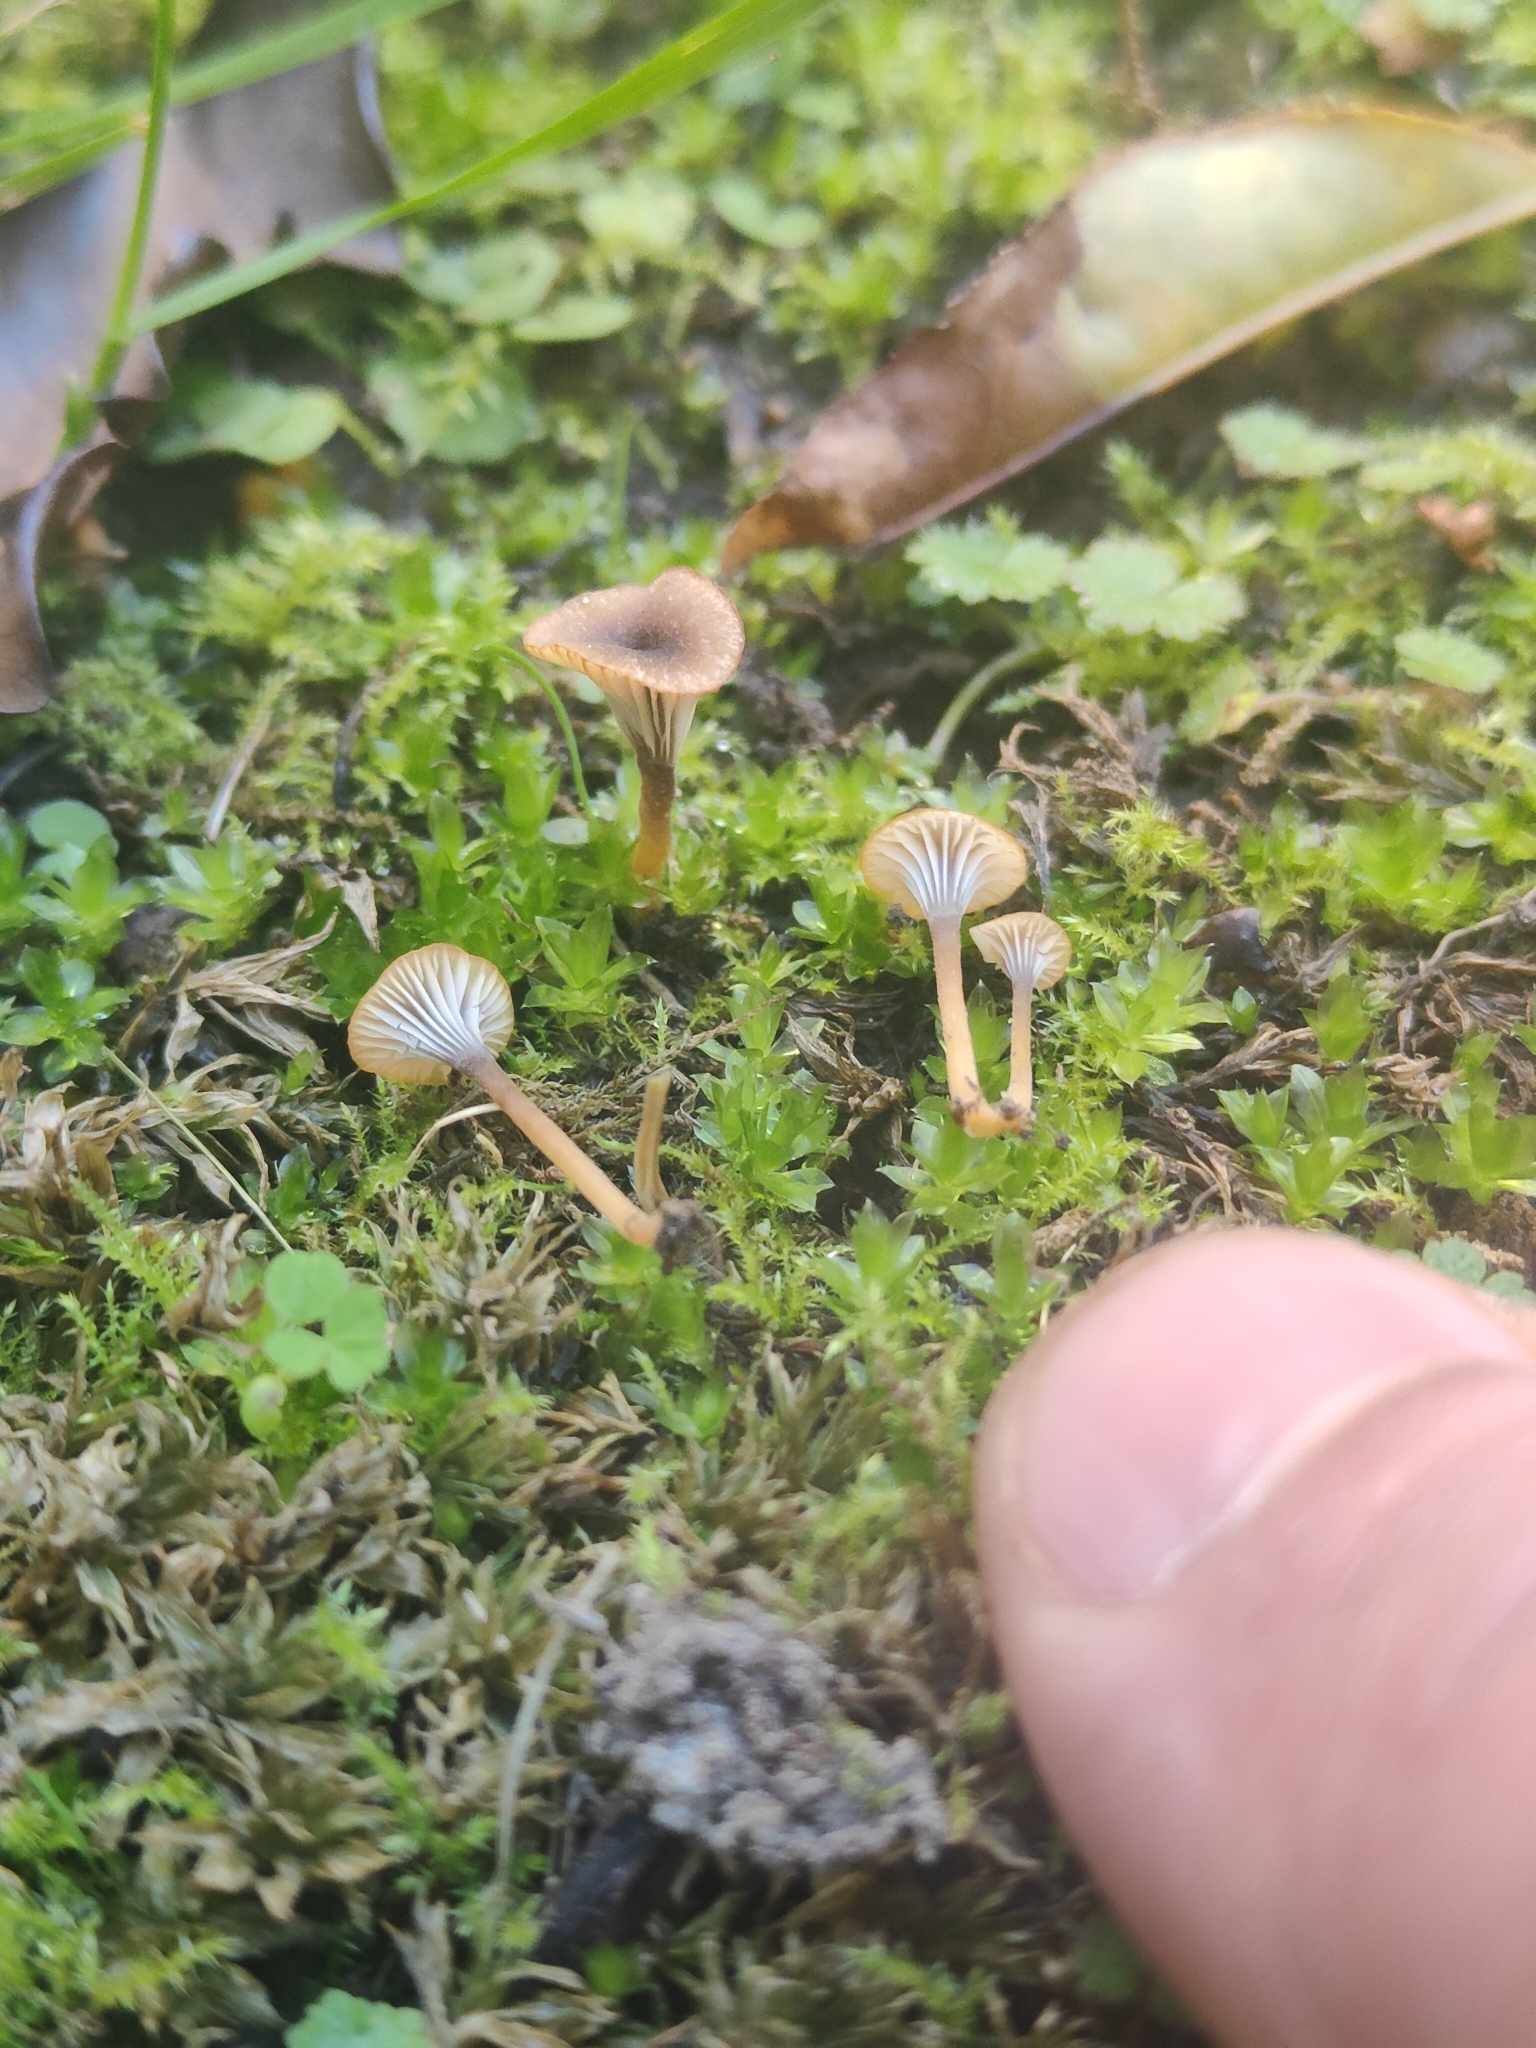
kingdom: Fungi
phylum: Basidiomycota
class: Agaricomycetes
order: Hymenochaetales
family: Rickenellaceae
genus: Rickenella
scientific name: Rickenella swartzii
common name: Collared mosscap
